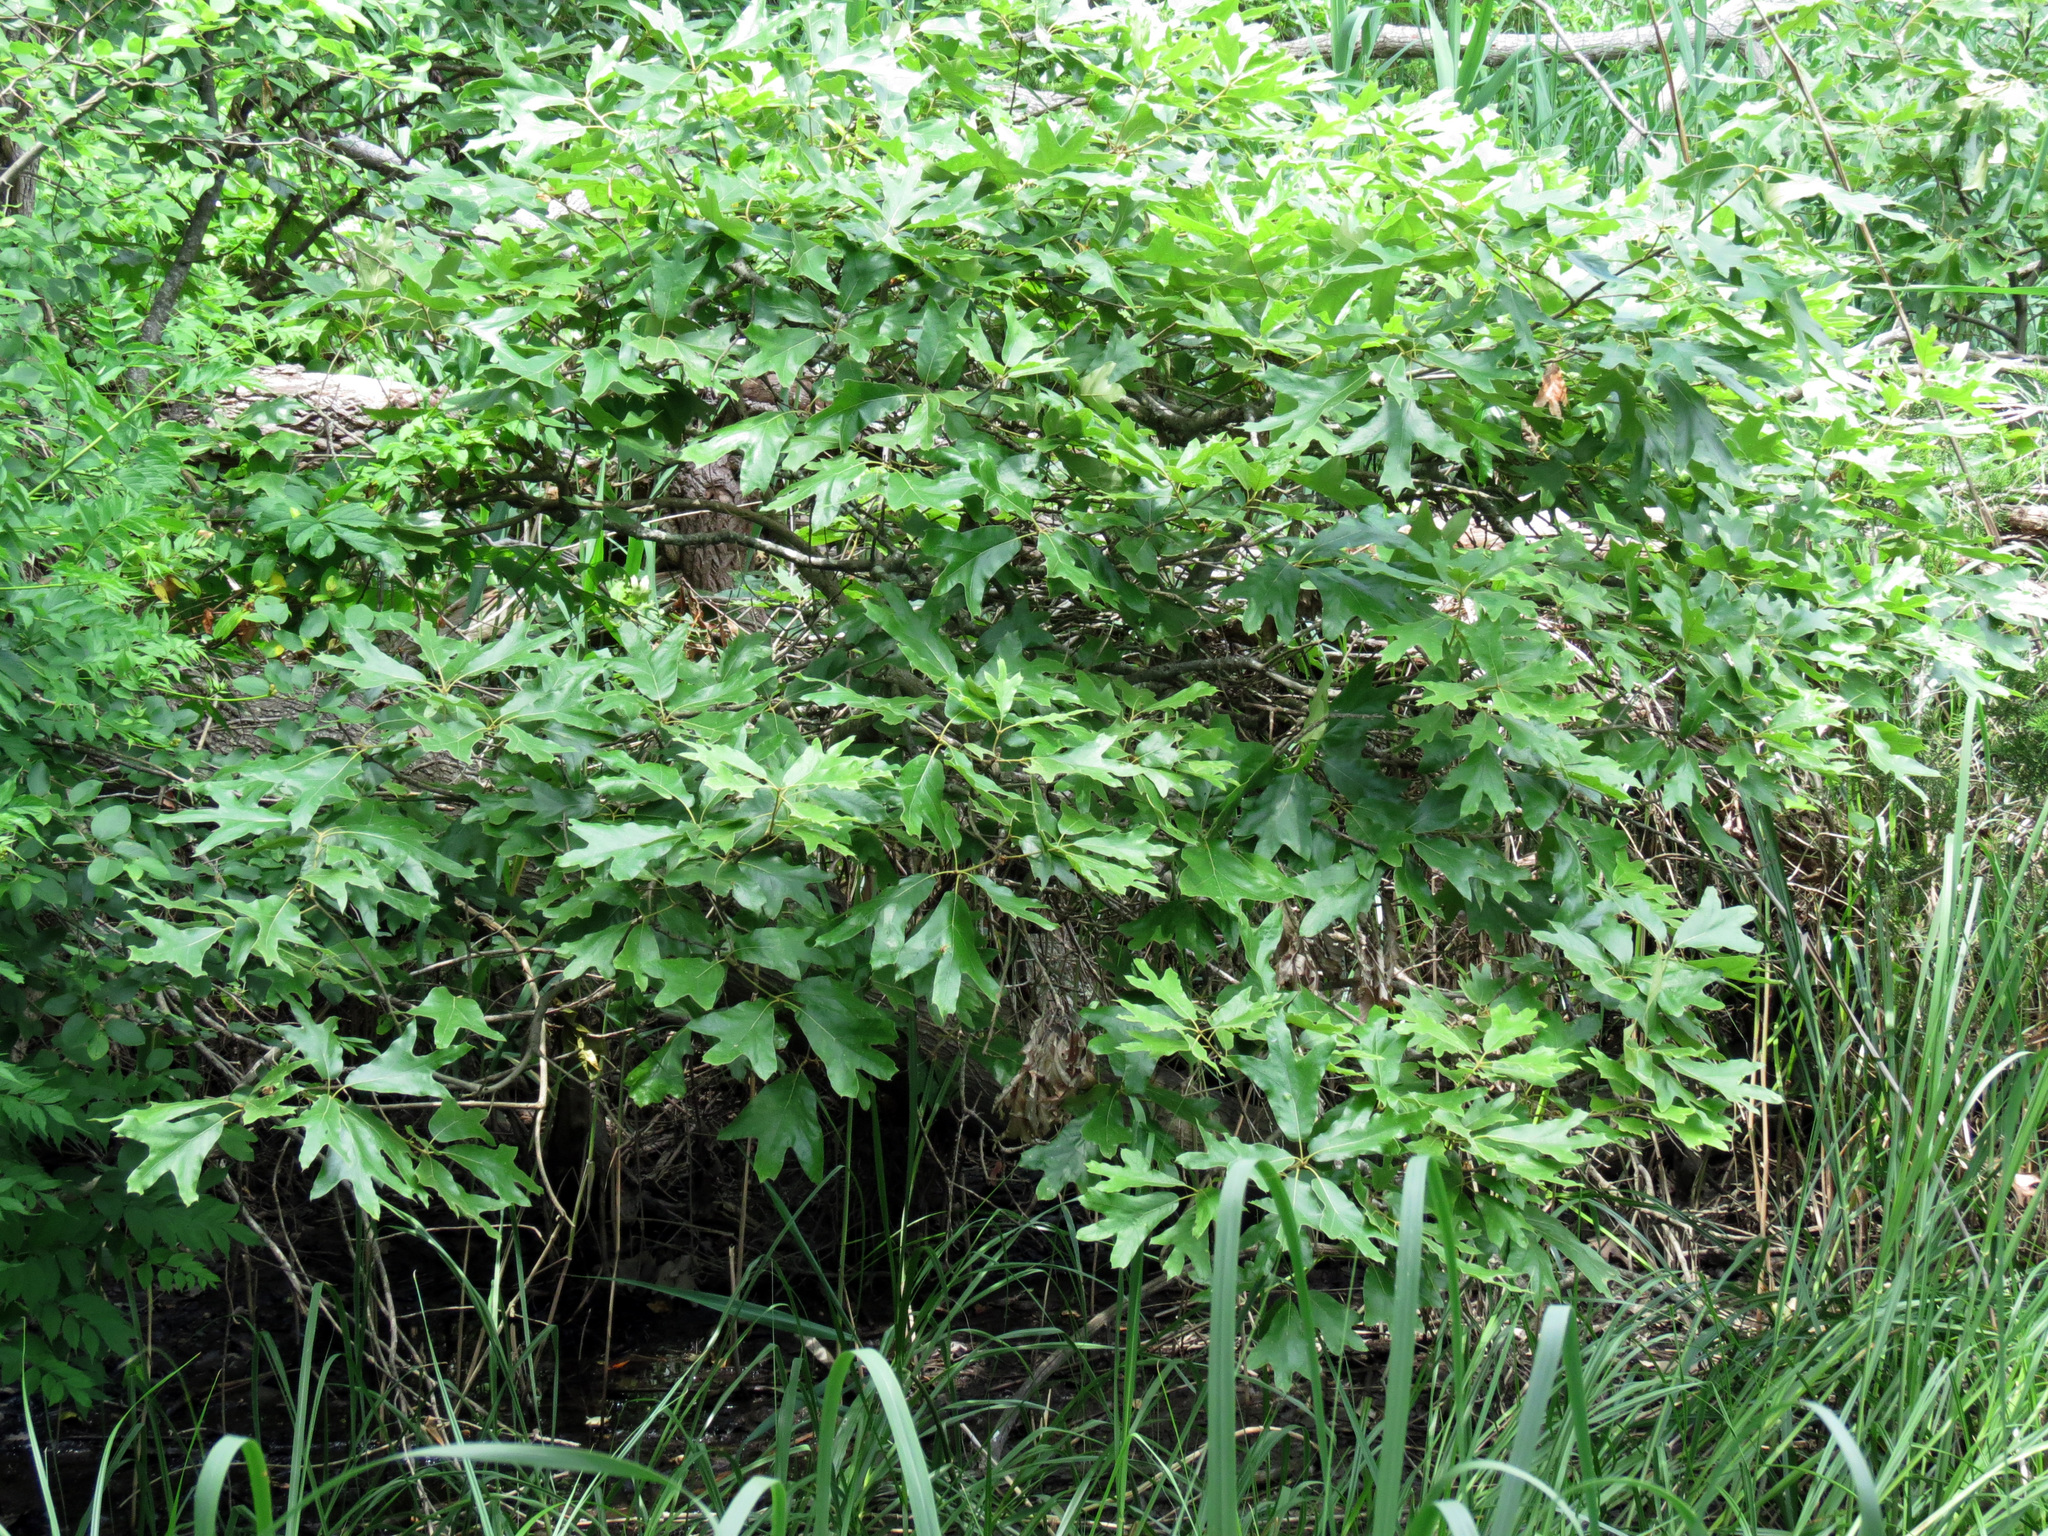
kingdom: Plantae
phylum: Tracheophyta
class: Magnoliopsida
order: Fagales
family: Fagaceae
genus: Quercus
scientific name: Quercus falcata
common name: Southern red oak
